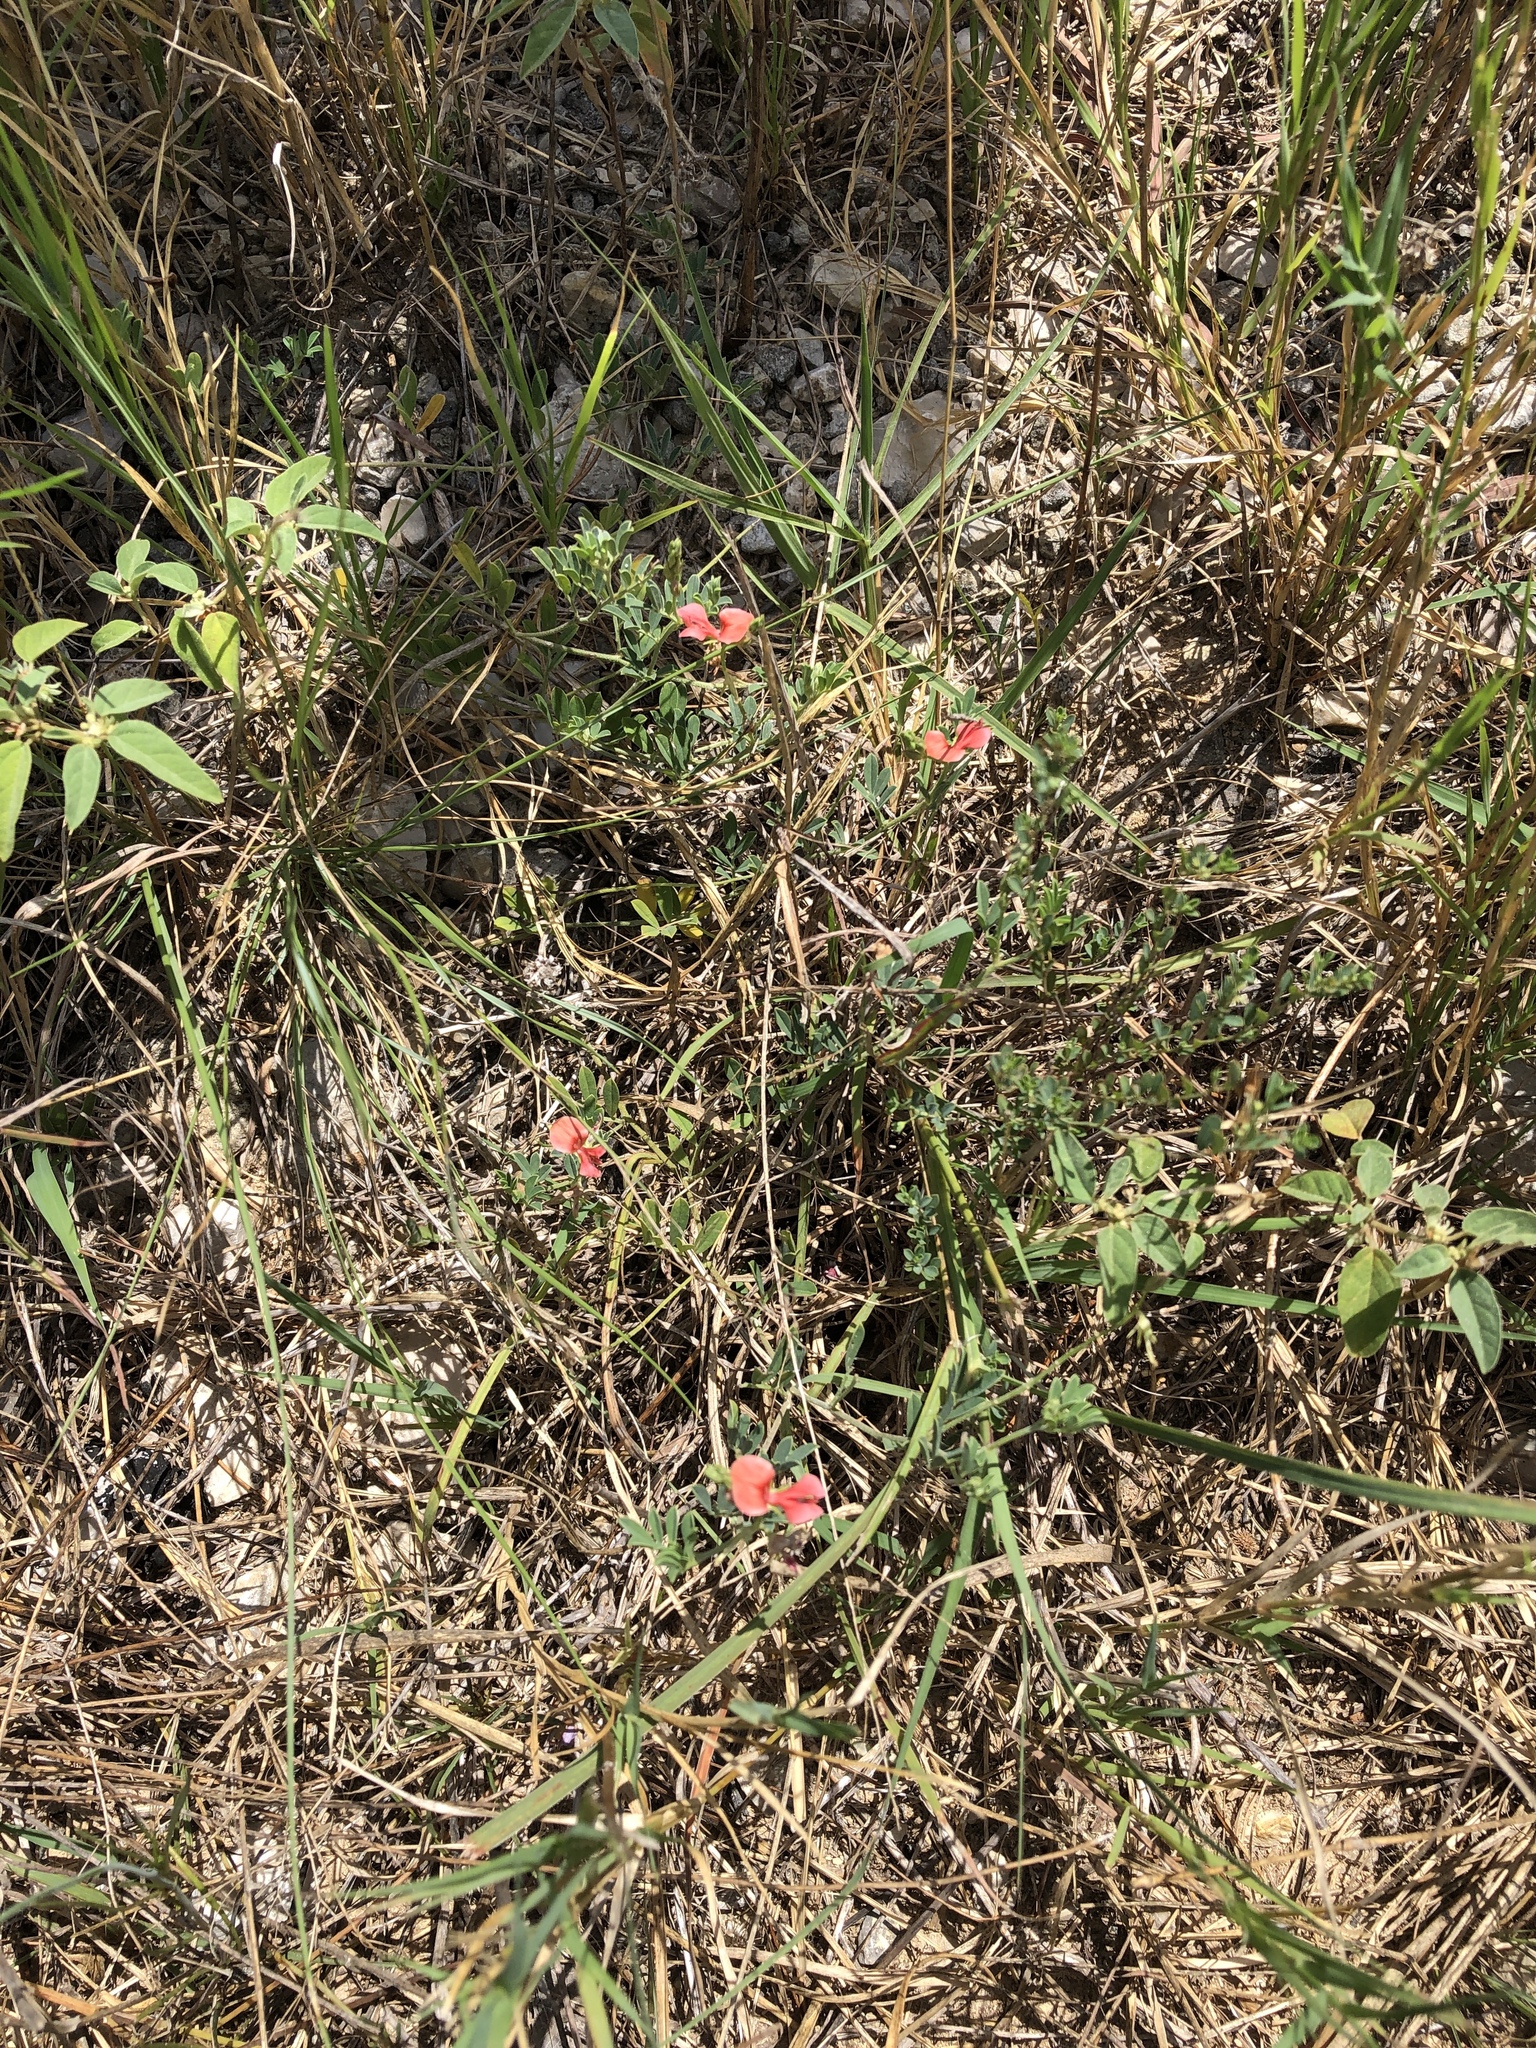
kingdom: Plantae
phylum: Tracheophyta
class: Magnoliopsida
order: Fabales
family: Fabaceae
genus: Indigofera
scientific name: Indigofera miniata
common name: Coast indigo
